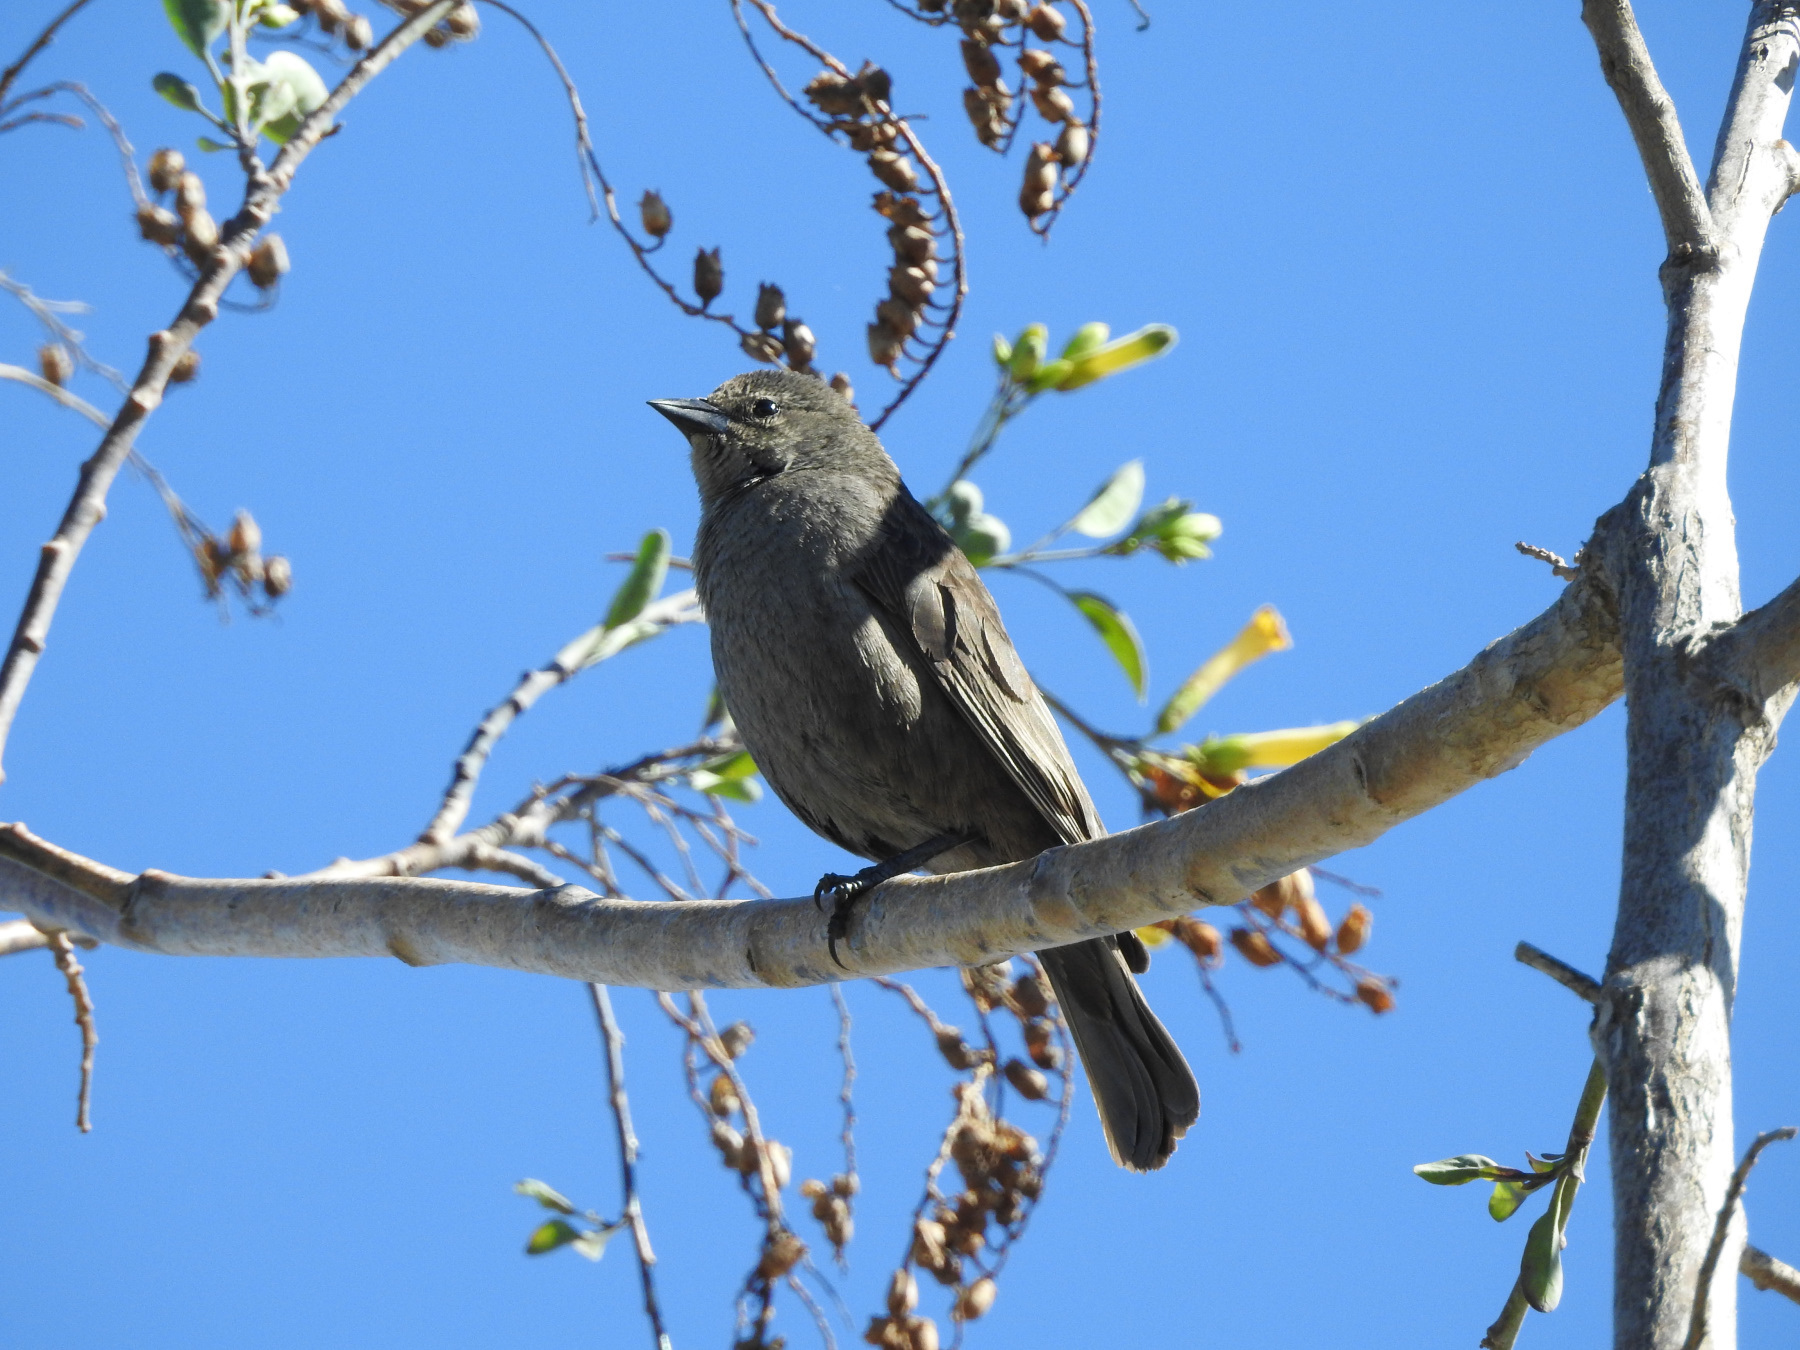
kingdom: Animalia
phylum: Chordata
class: Aves
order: Passeriformes
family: Icteridae
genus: Molothrus
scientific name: Molothrus bonariensis
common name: Shiny cowbird
